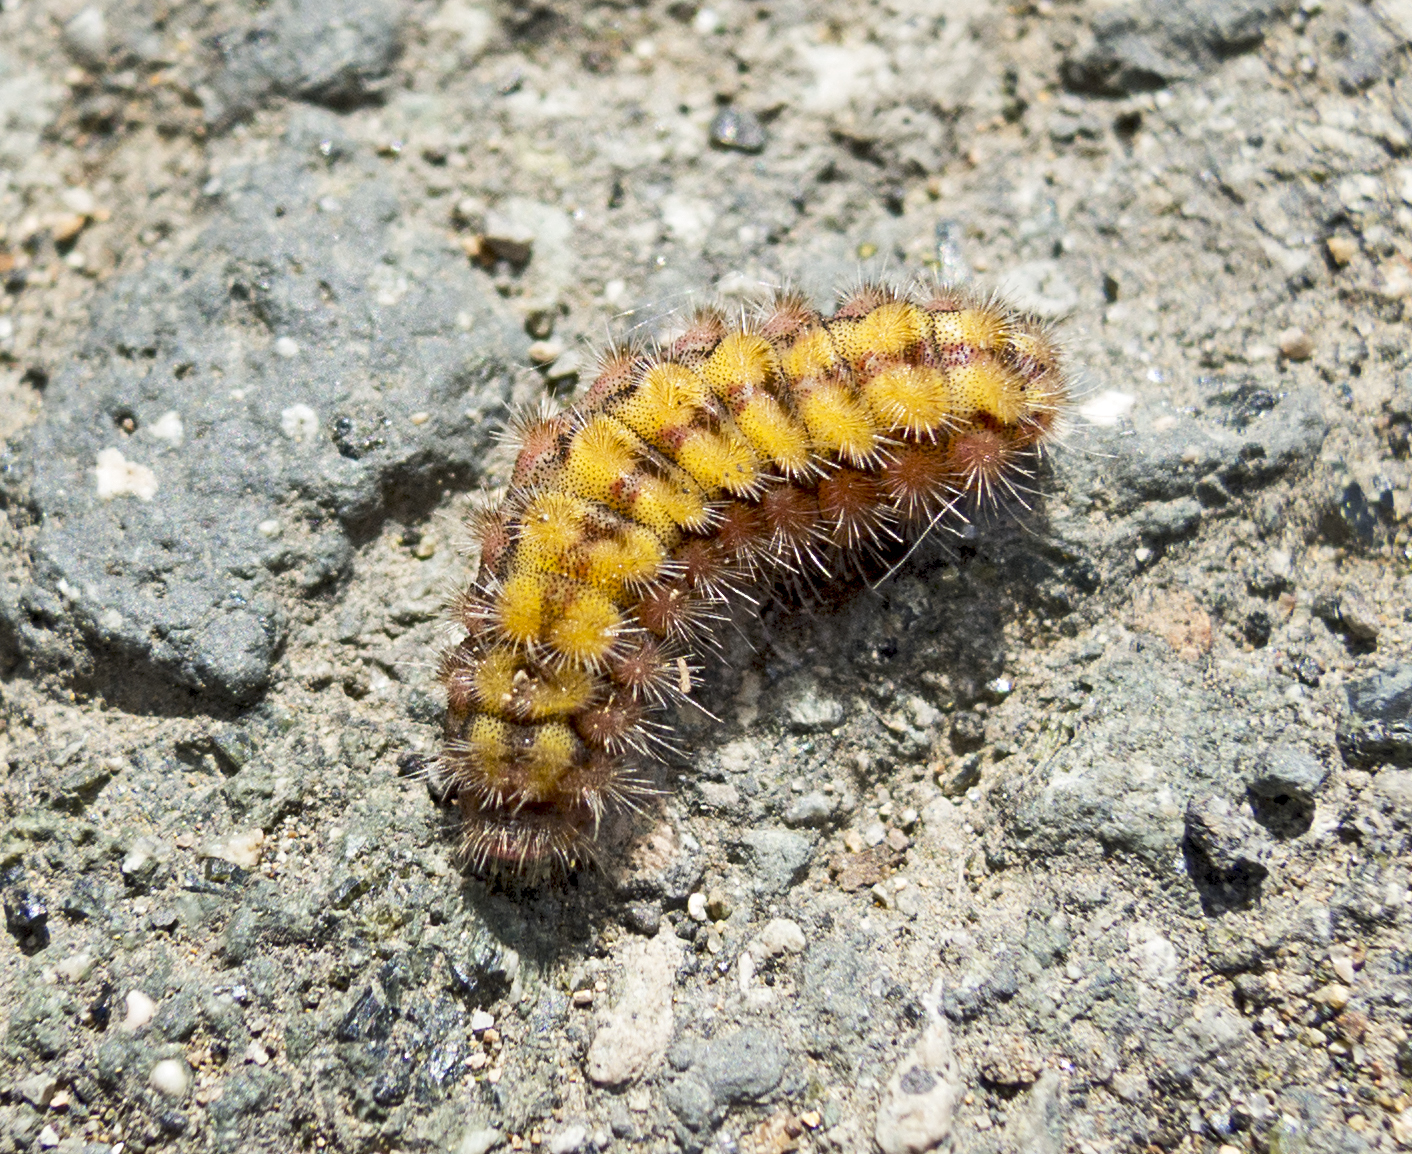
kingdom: Animalia
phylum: Arthropoda
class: Insecta
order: Lepidoptera
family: Zygaenidae
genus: Adscita
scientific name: Adscita statices
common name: Forester
